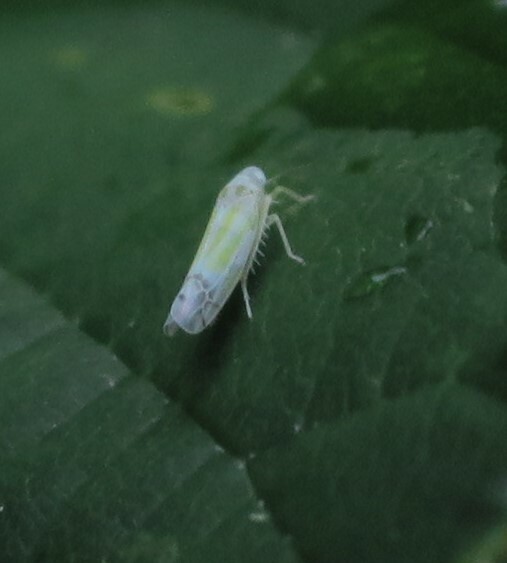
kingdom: Animalia
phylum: Arthropoda
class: Insecta
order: Hemiptera
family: Cicadellidae
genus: Ribautiana
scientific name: Ribautiana tenerrima
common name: Bramble leafhopper
